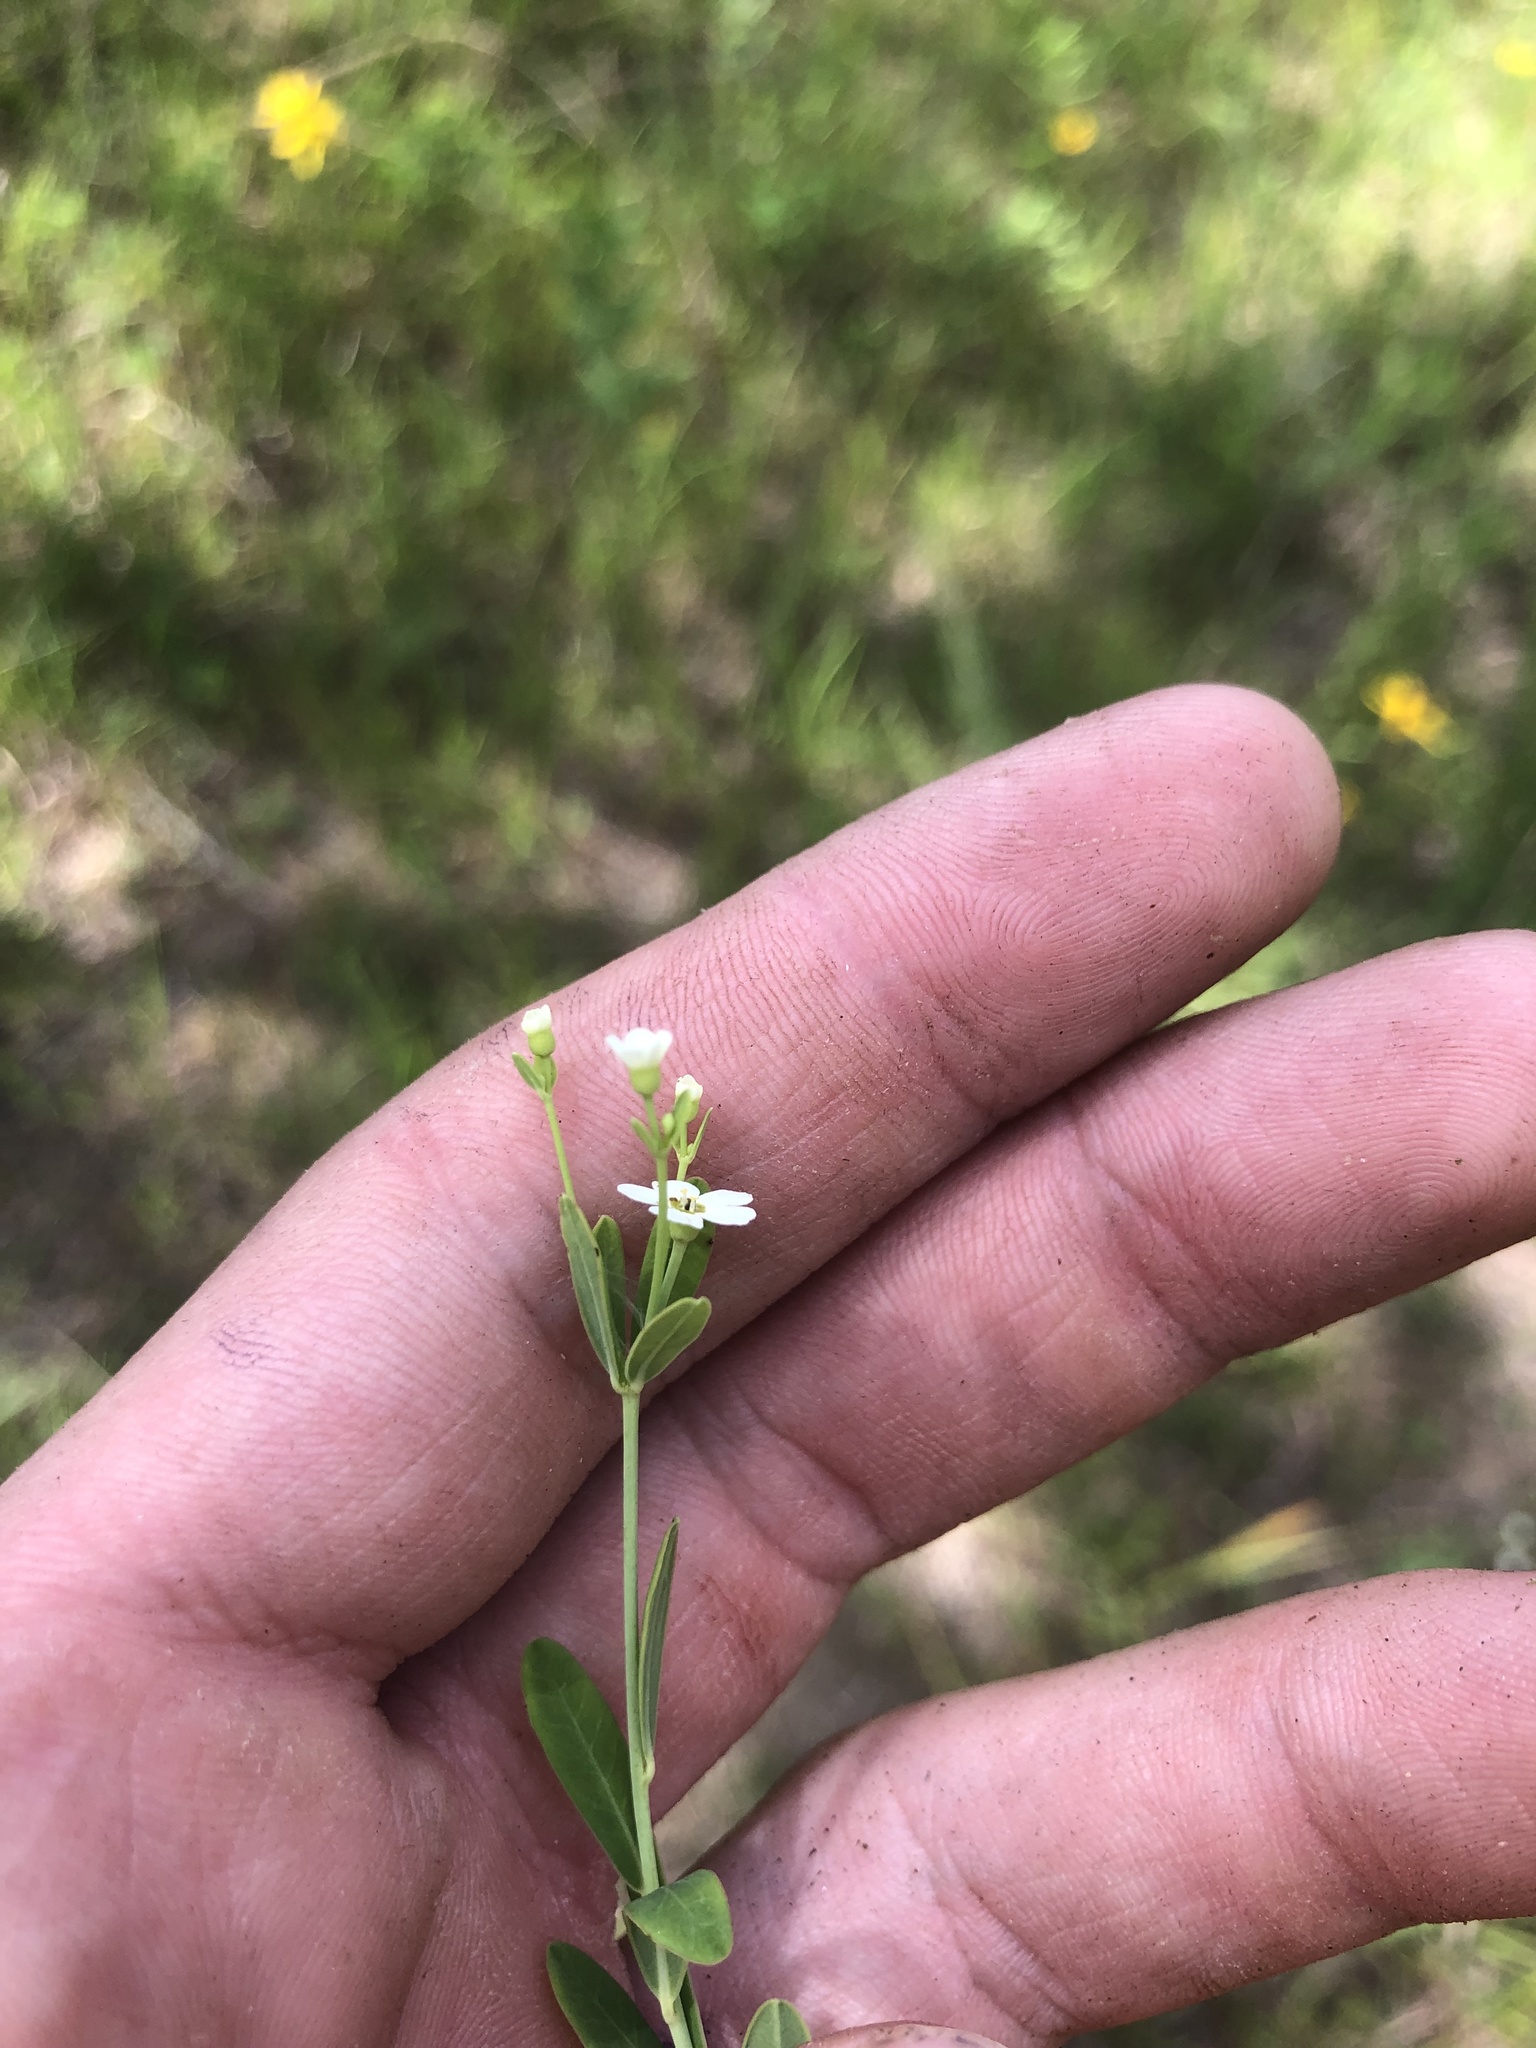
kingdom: Plantae
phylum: Tracheophyta
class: Magnoliopsida
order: Malpighiales
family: Euphorbiaceae
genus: Euphorbia
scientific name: Euphorbia corollata
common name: Flowering spurge
